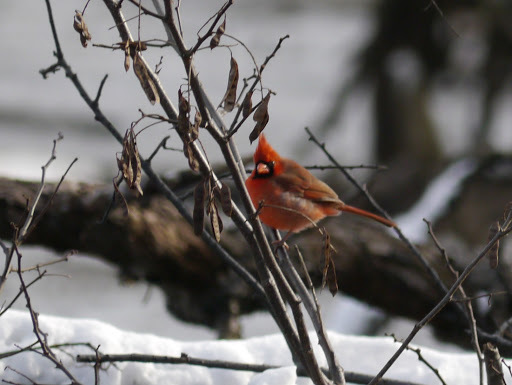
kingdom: Animalia
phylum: Chordata
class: Aves
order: Passeriformes
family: Cardinalidae
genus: Cardinalis
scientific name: Cardinalis cardinalis
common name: Northern cardinal
